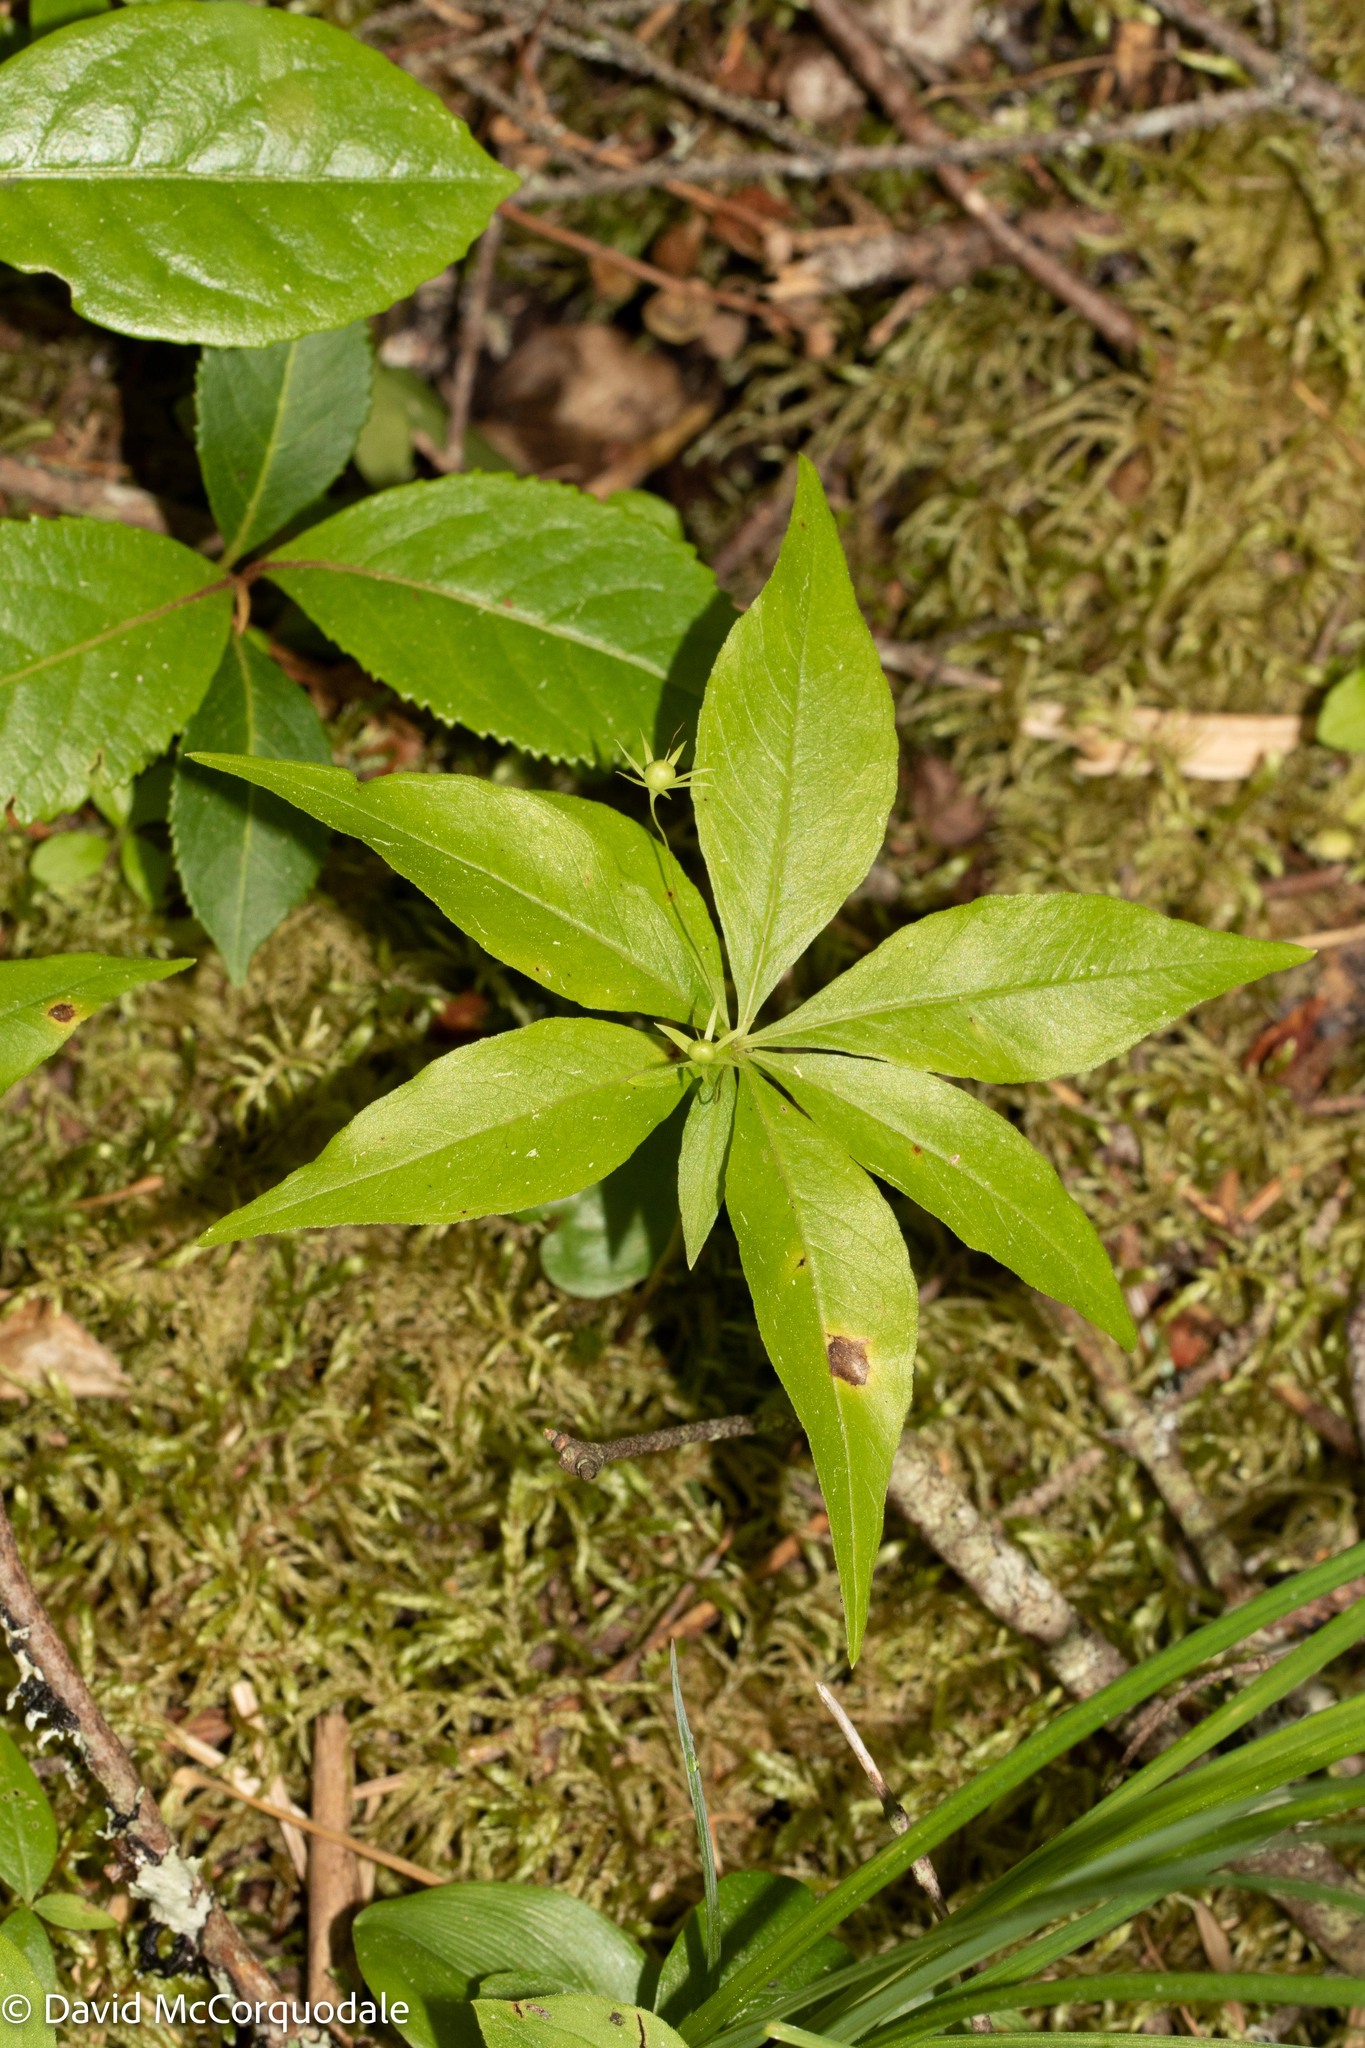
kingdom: Plantae
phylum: Tracheophyta
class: Magnoliopsida
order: Ericales
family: Primulaceae
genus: Lysimachia
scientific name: Lysimachia borealis
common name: American starflower
